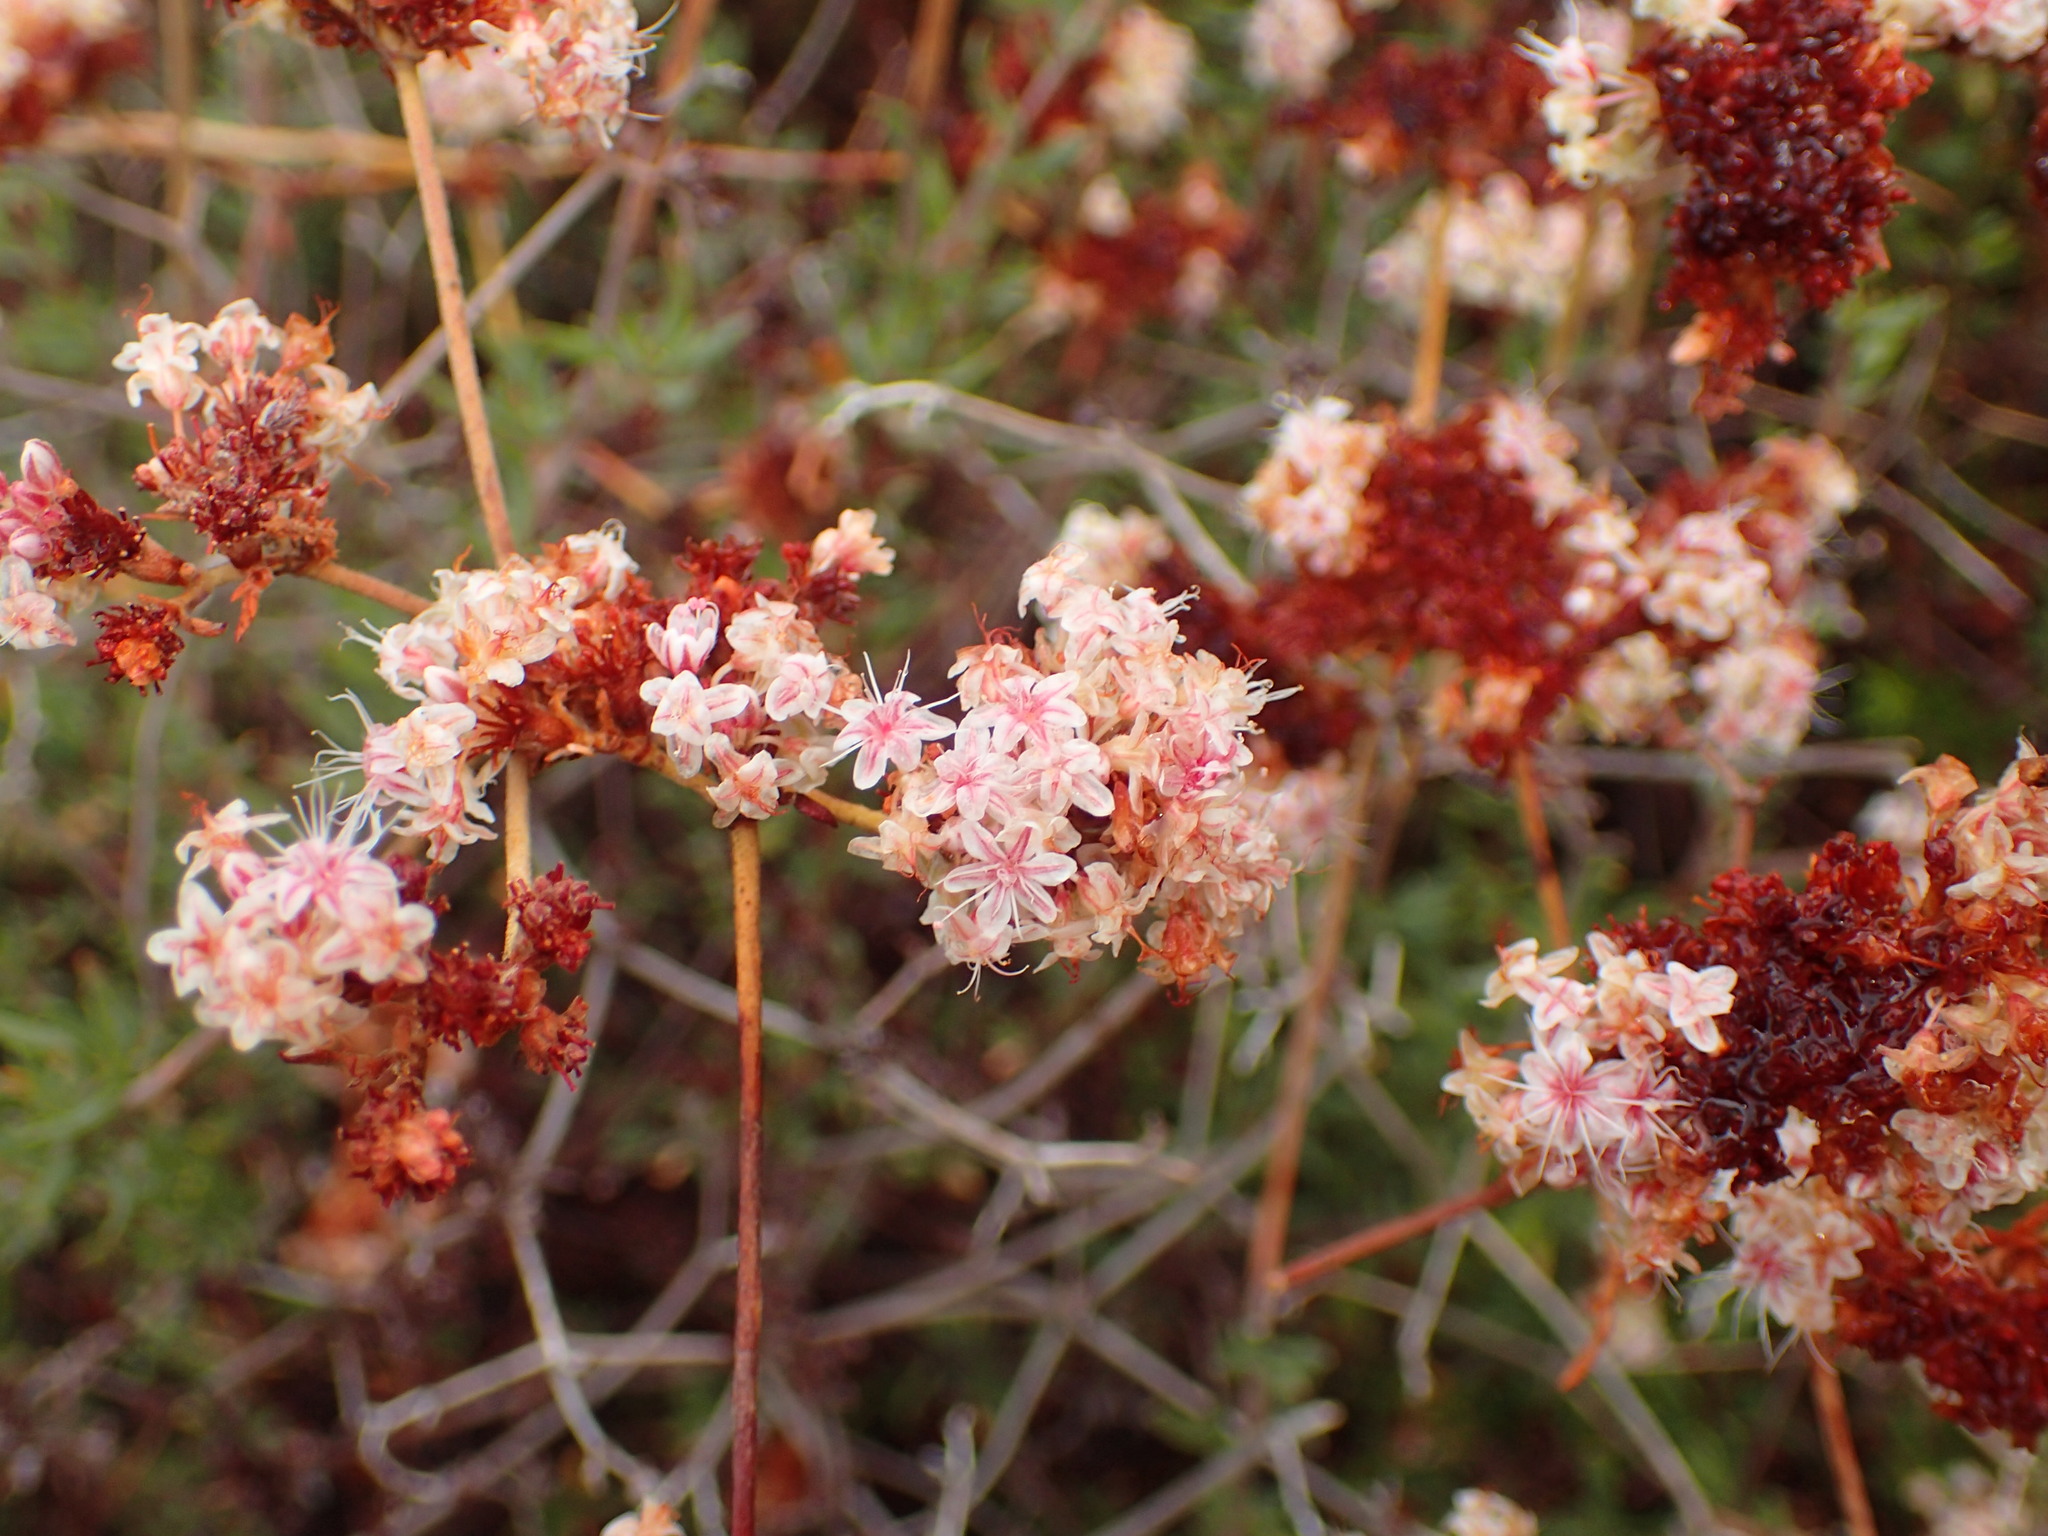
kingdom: Plantae
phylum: Tracheophyta
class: Magnoliopsida
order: Caryophyllales
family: Polygonaceae
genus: Eriogonum
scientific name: Eriogonum fasciculatum
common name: California wild buckwheat
